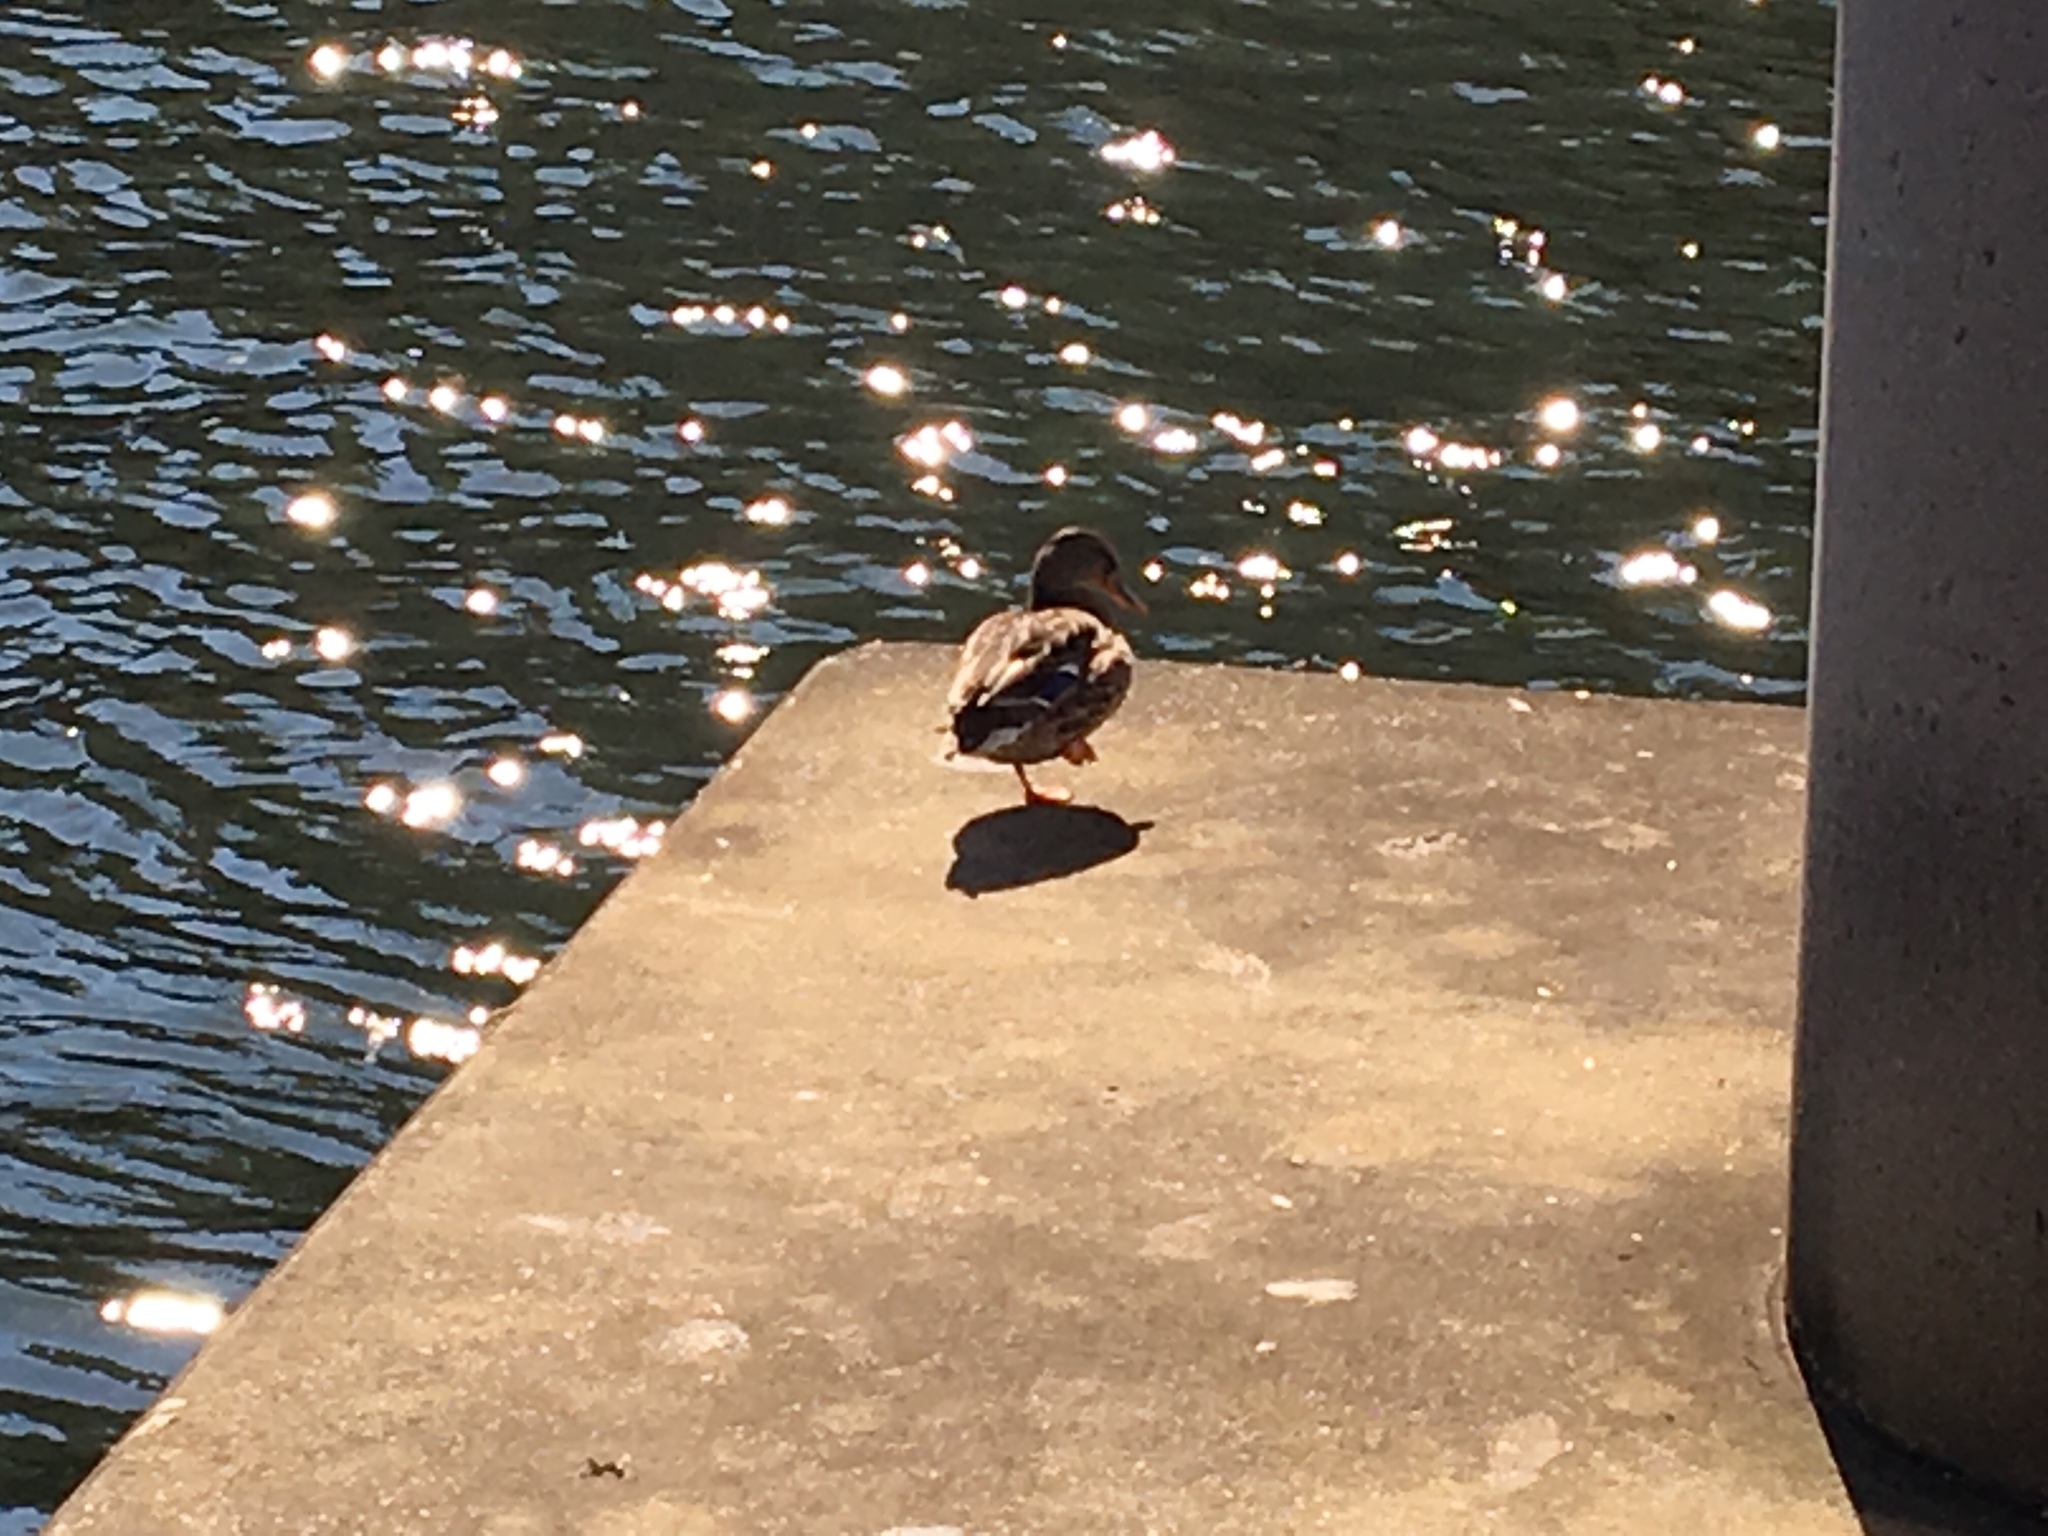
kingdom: Animalia
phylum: Chordata
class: Aves
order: Anseriformes
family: Anatidae
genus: Anas
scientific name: Anas platyrhynchos
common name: Mallard
